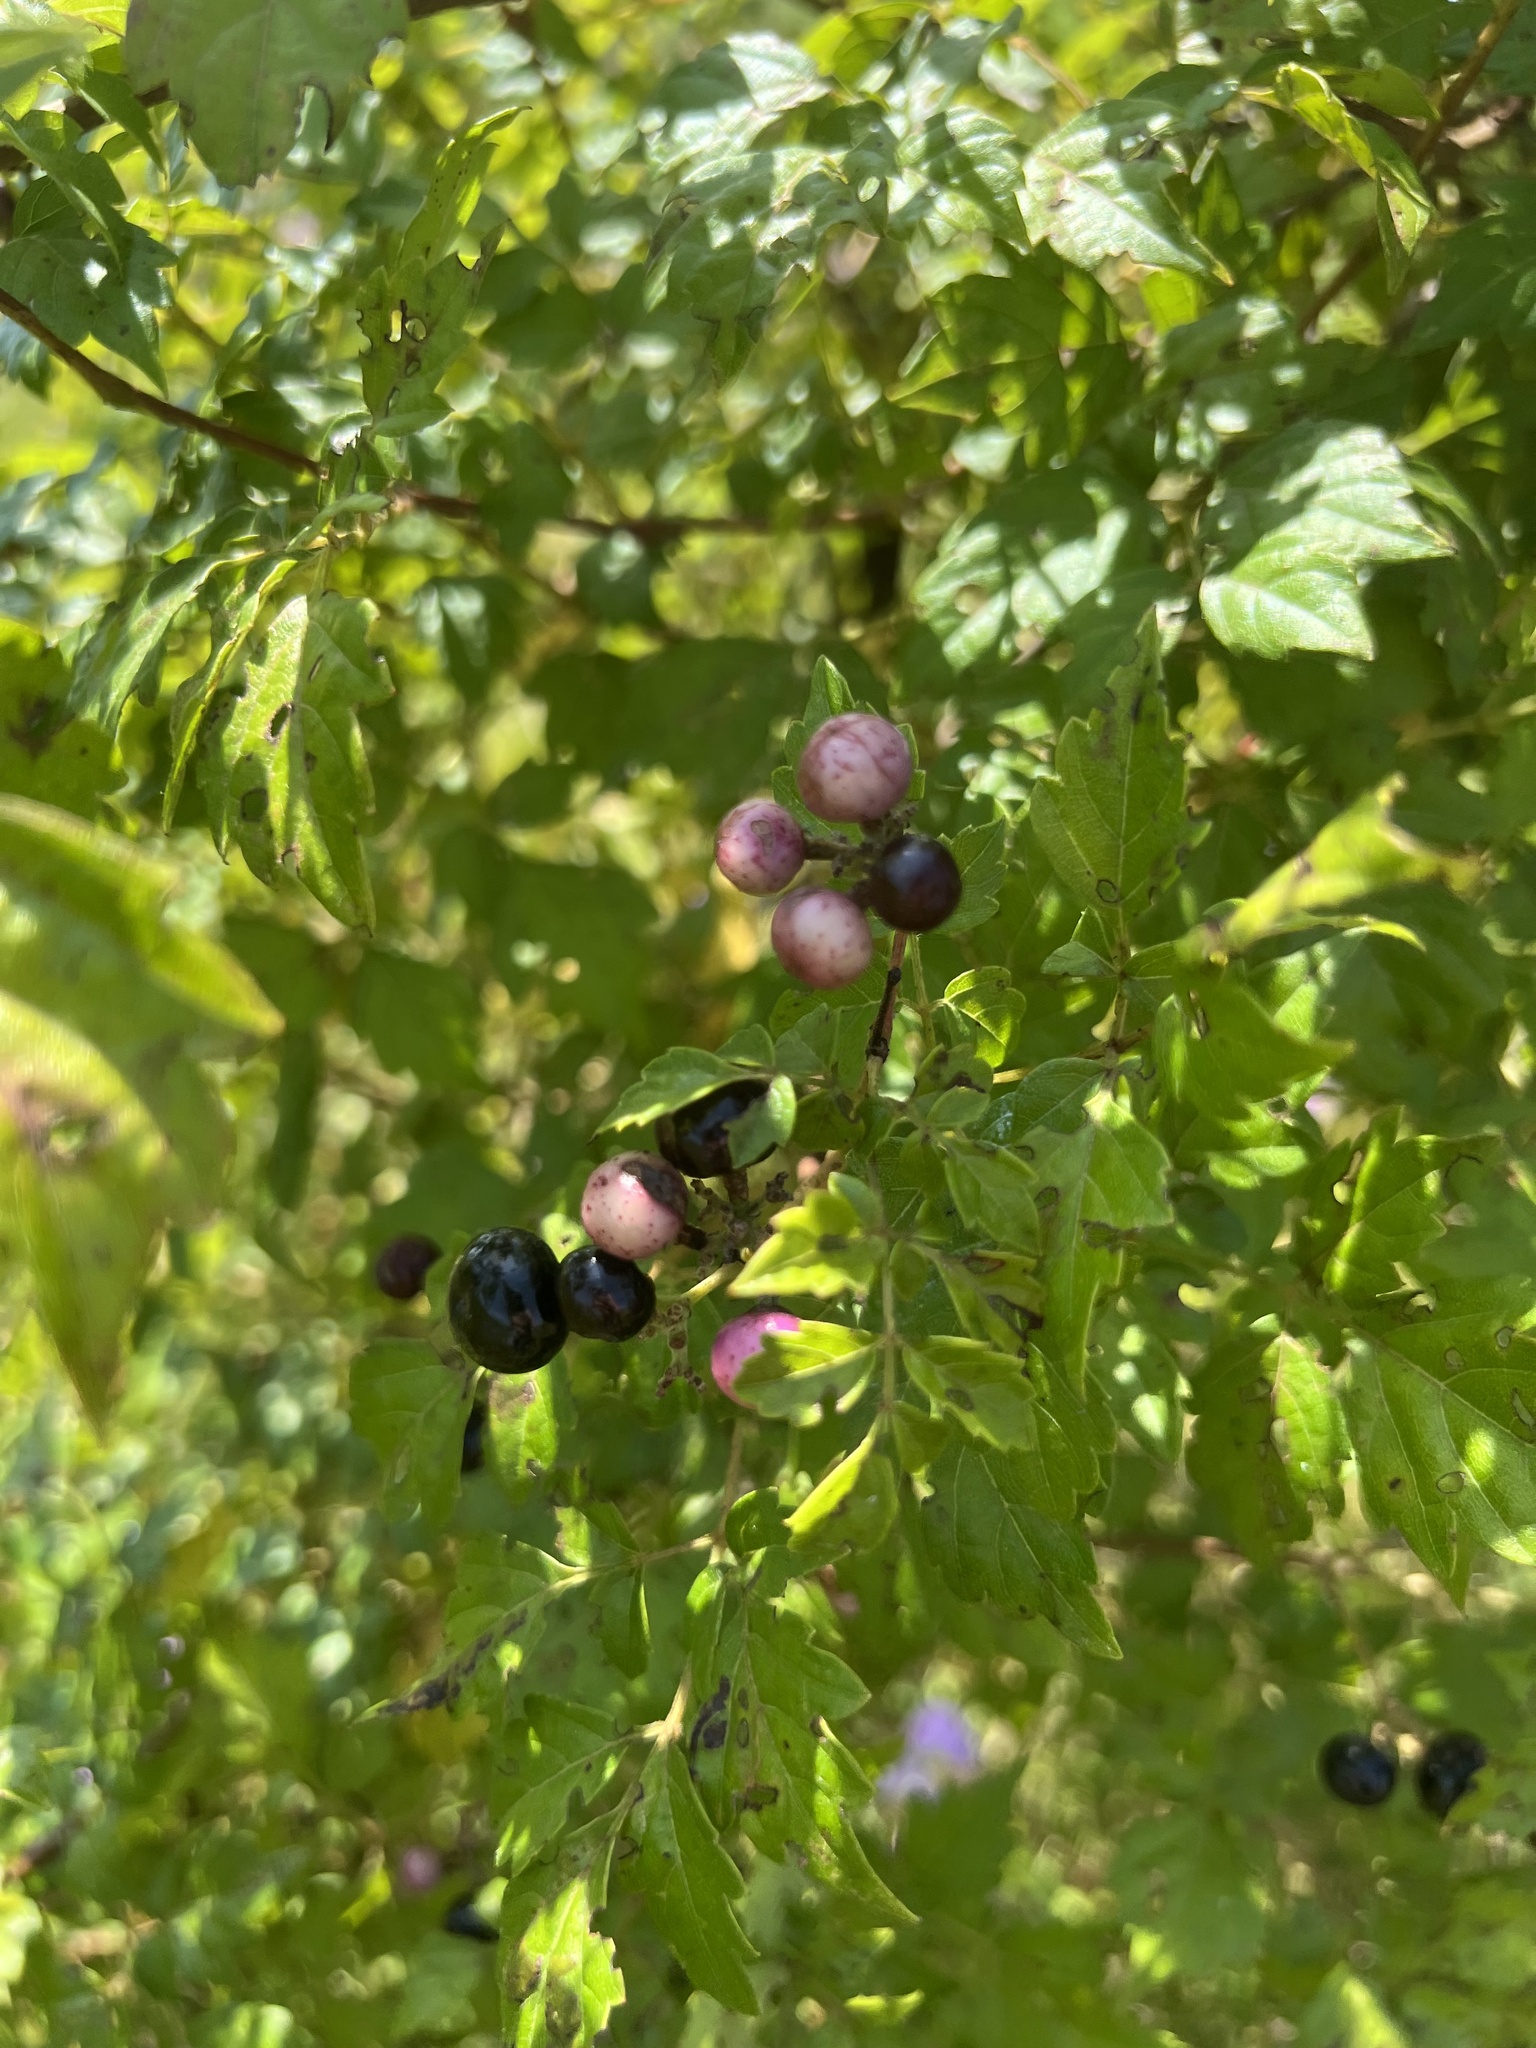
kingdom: Plantae
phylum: Tracheophyta
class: Magnoliopsida
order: Vitales
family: Vitaceae
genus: Nekemias
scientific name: Nekemias arborea
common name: Peppervine
